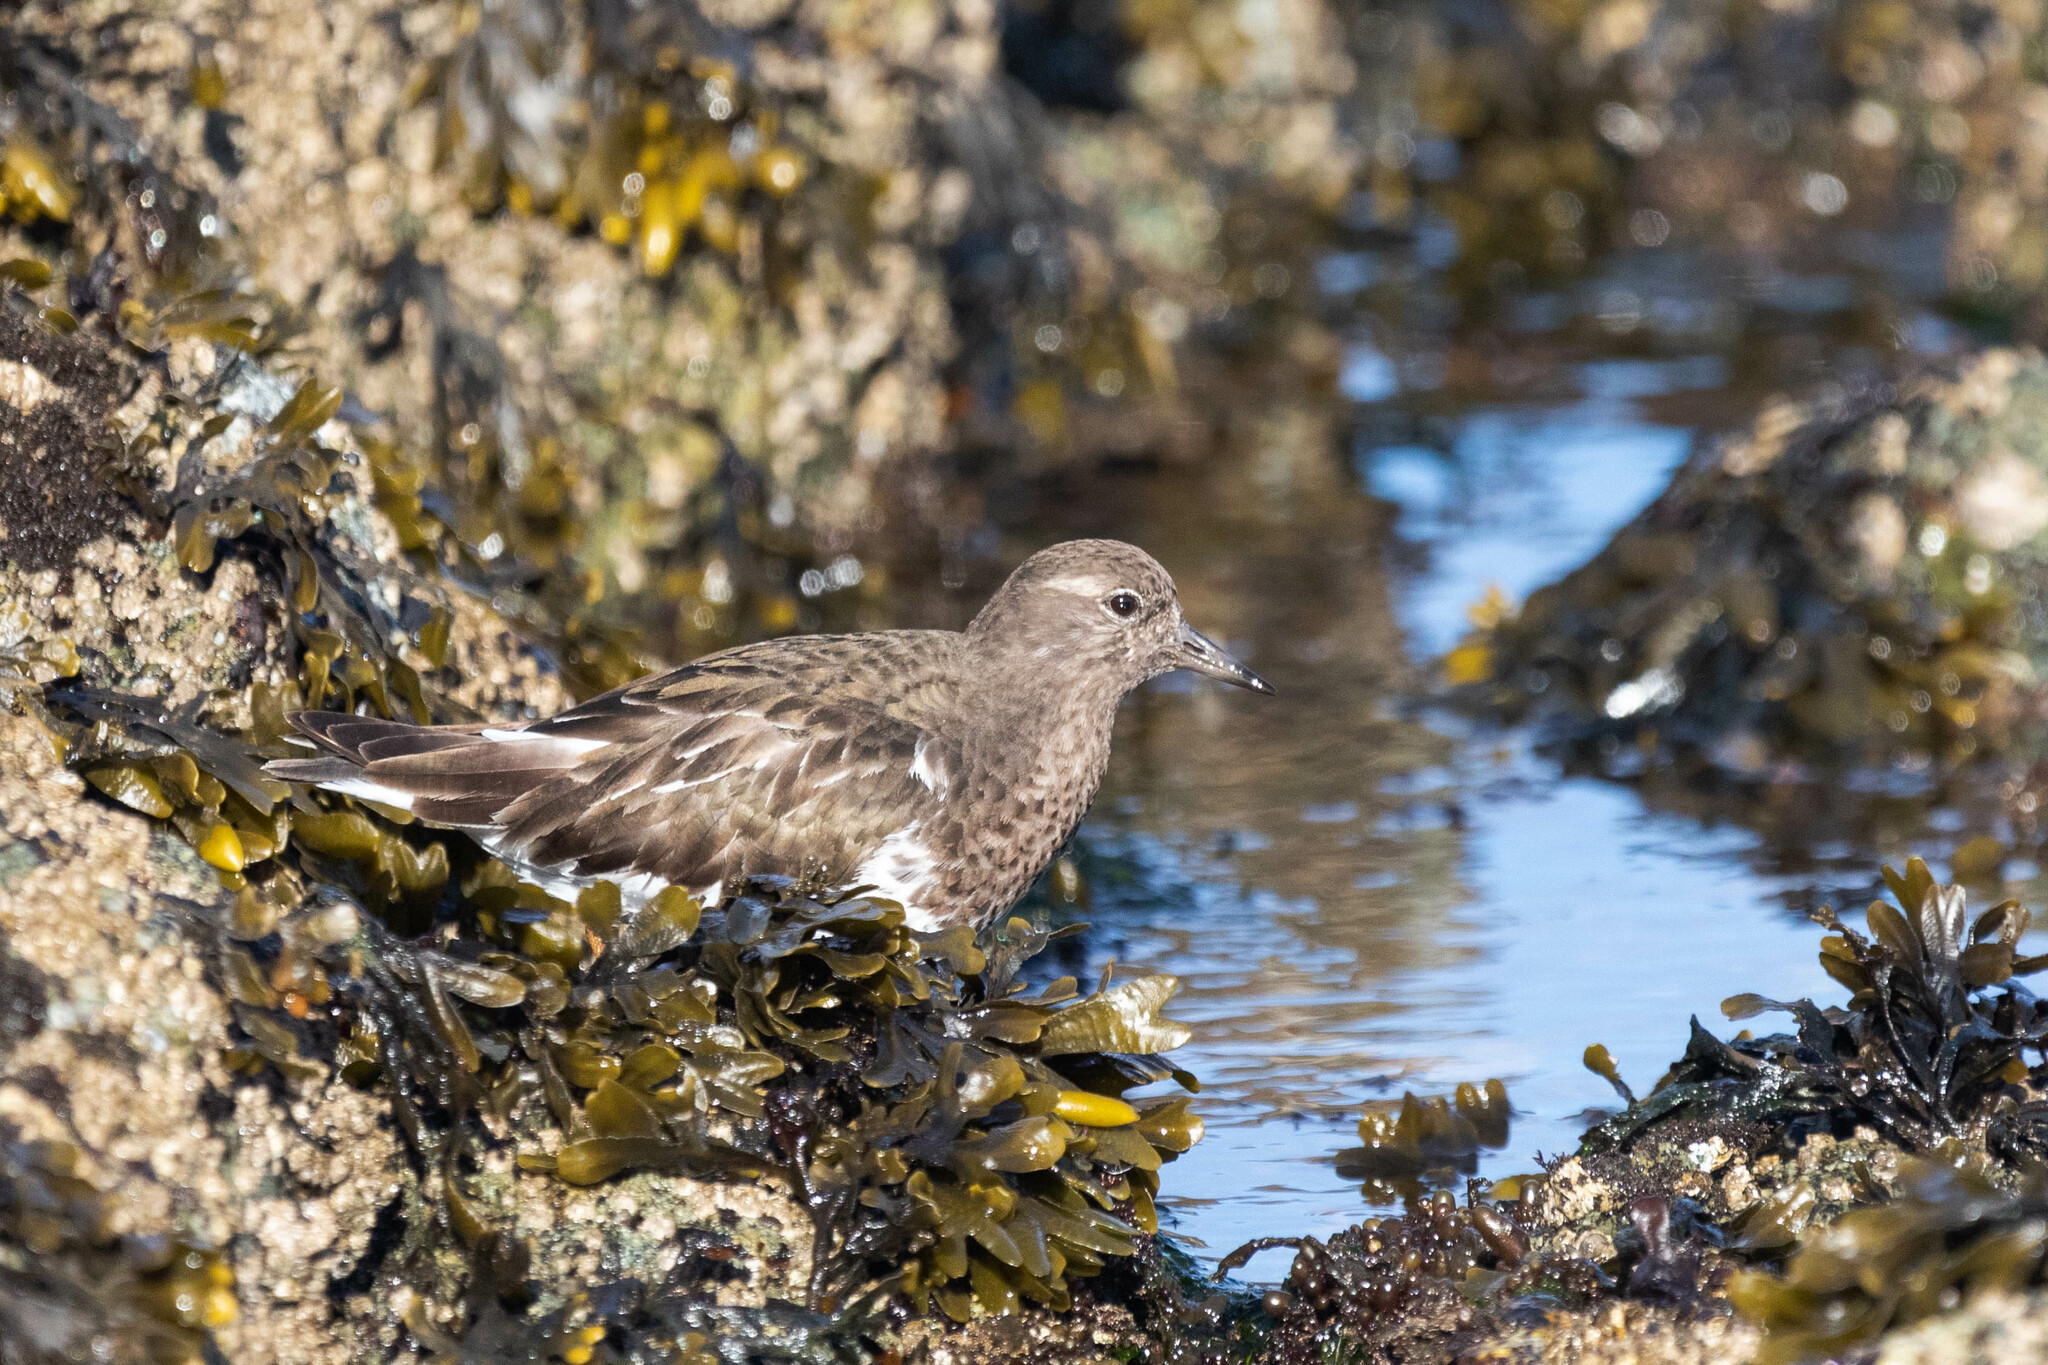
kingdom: Animalia
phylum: Chordata
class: Aves
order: Charadriiformes
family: Scolopacidae
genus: Arenaria
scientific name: Arenaria melanocephala
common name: Black turnstone
